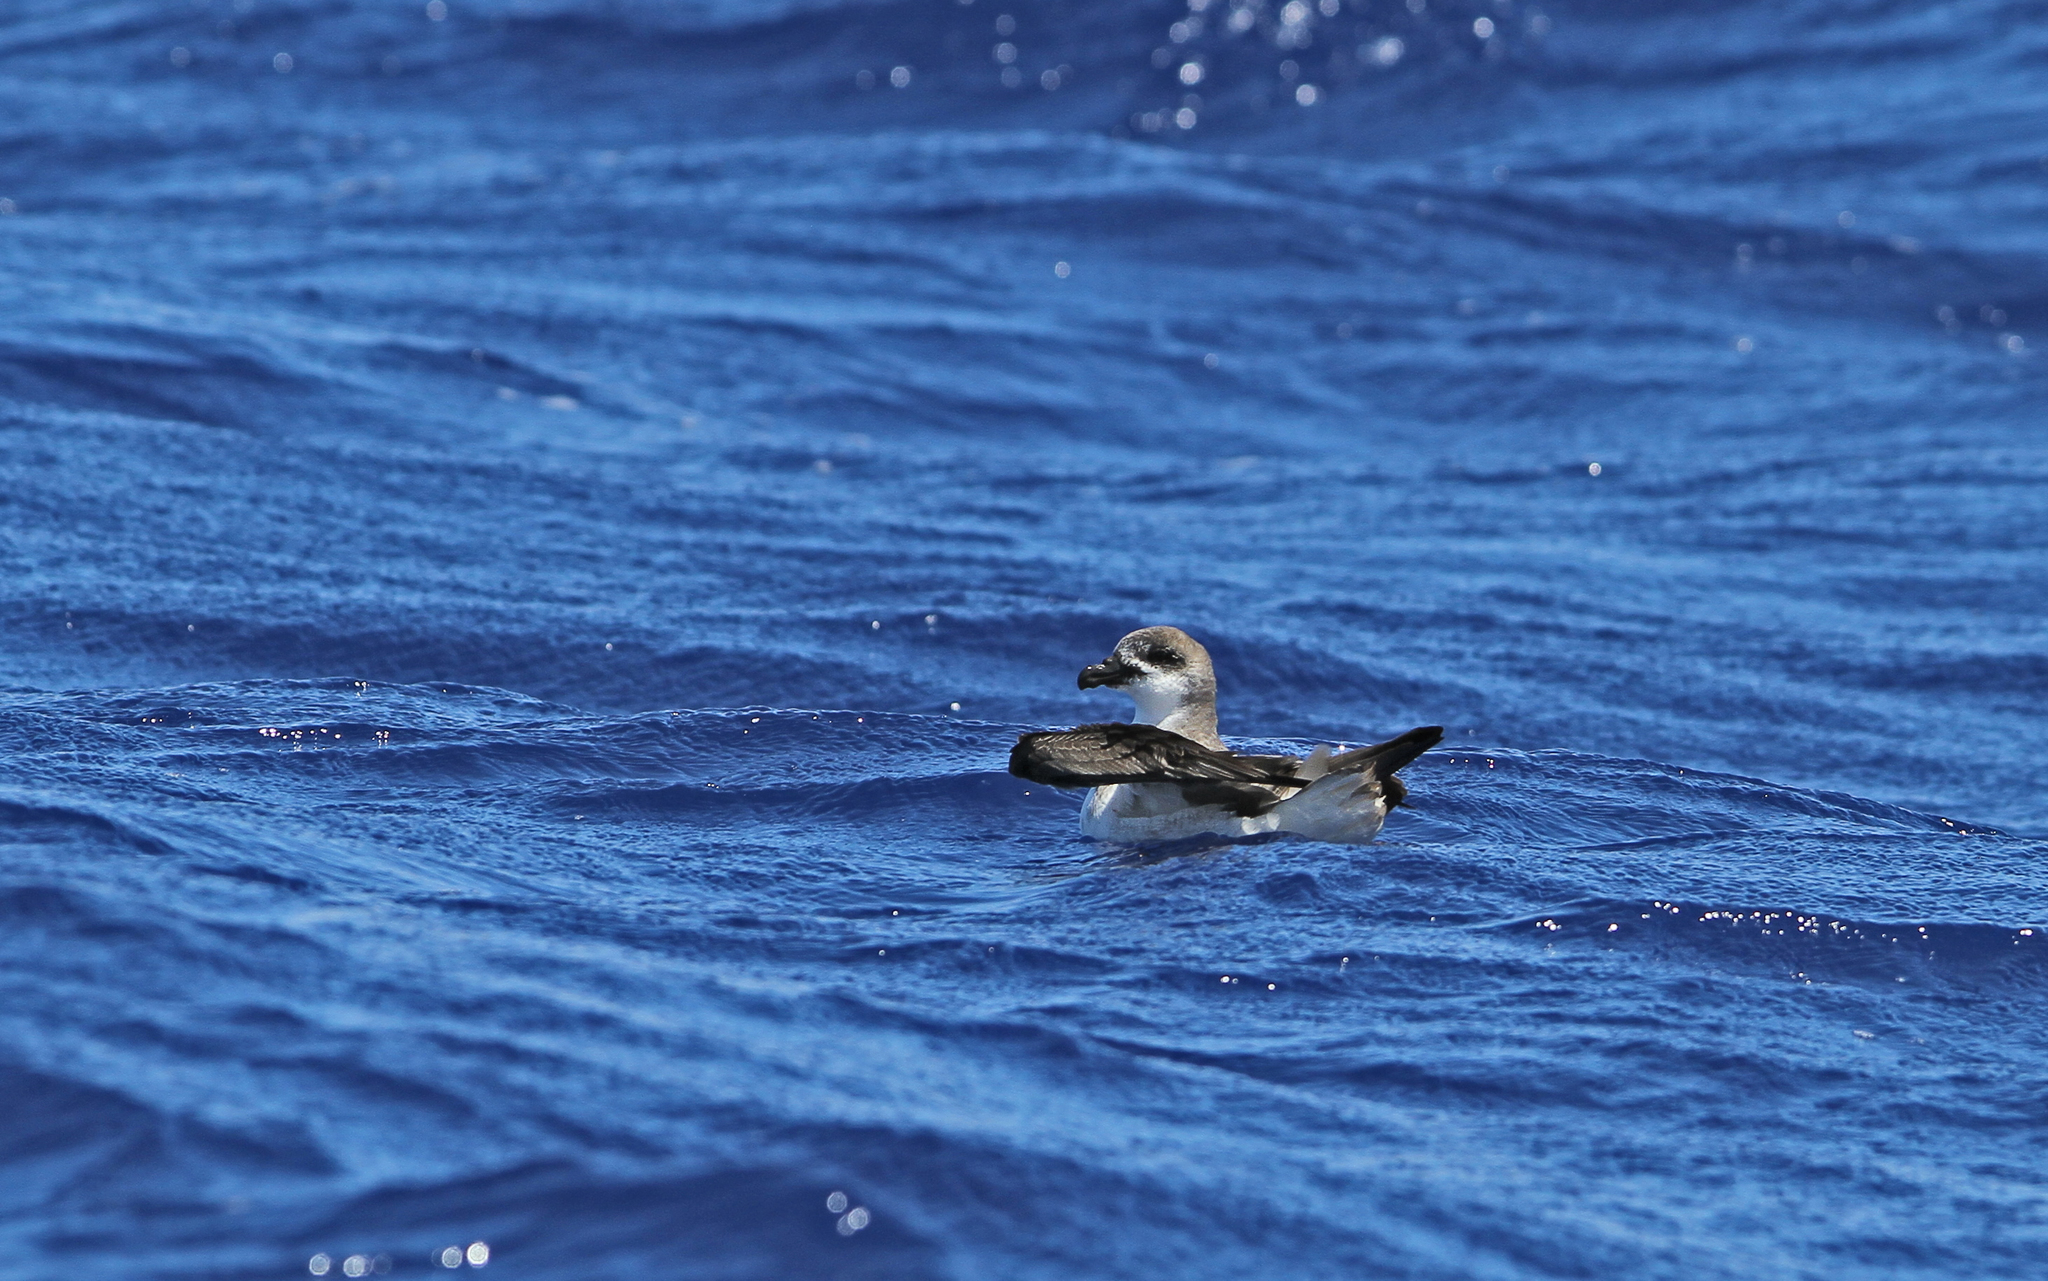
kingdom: Animalia
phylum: Chordata
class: Aves
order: Procellariiformes
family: Procellariidae
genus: Pterodroma
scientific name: Pterodroma feae
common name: Fea's petrel
